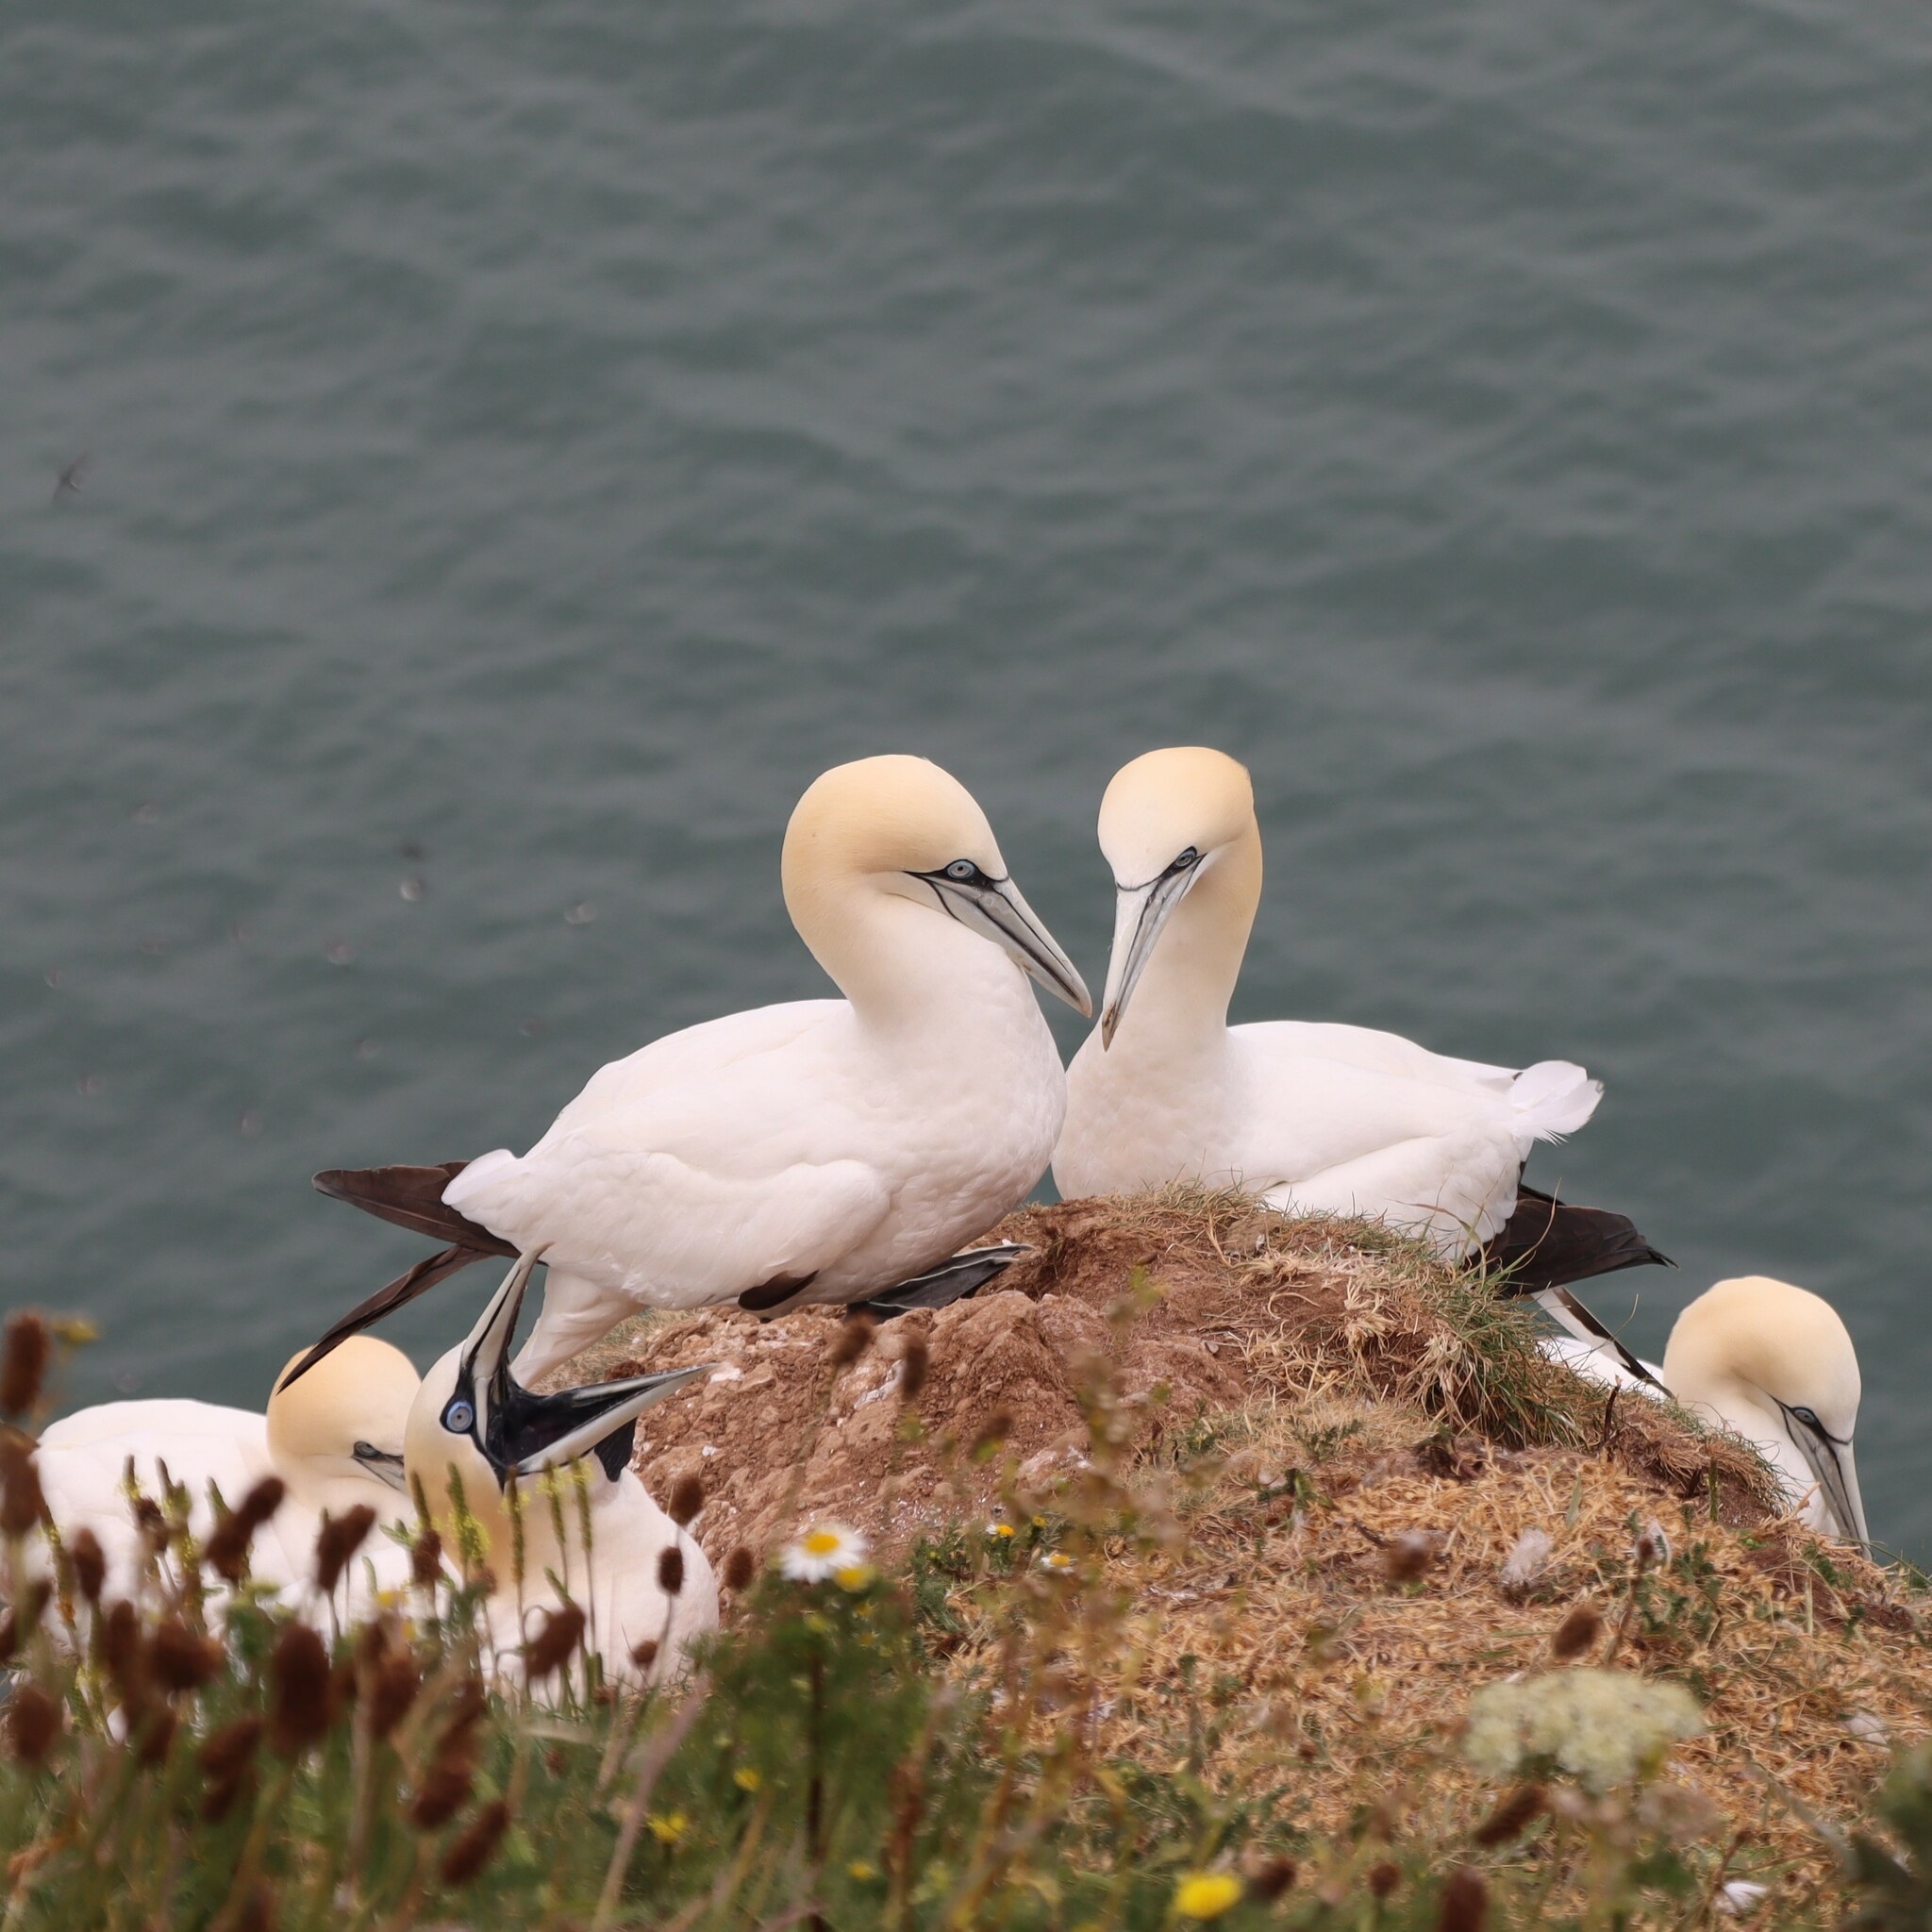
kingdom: Animalia
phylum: Chordata
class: Aves
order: Suliformes
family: Sulidae
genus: Morus
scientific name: Morus bassanus
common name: Northern gannet
